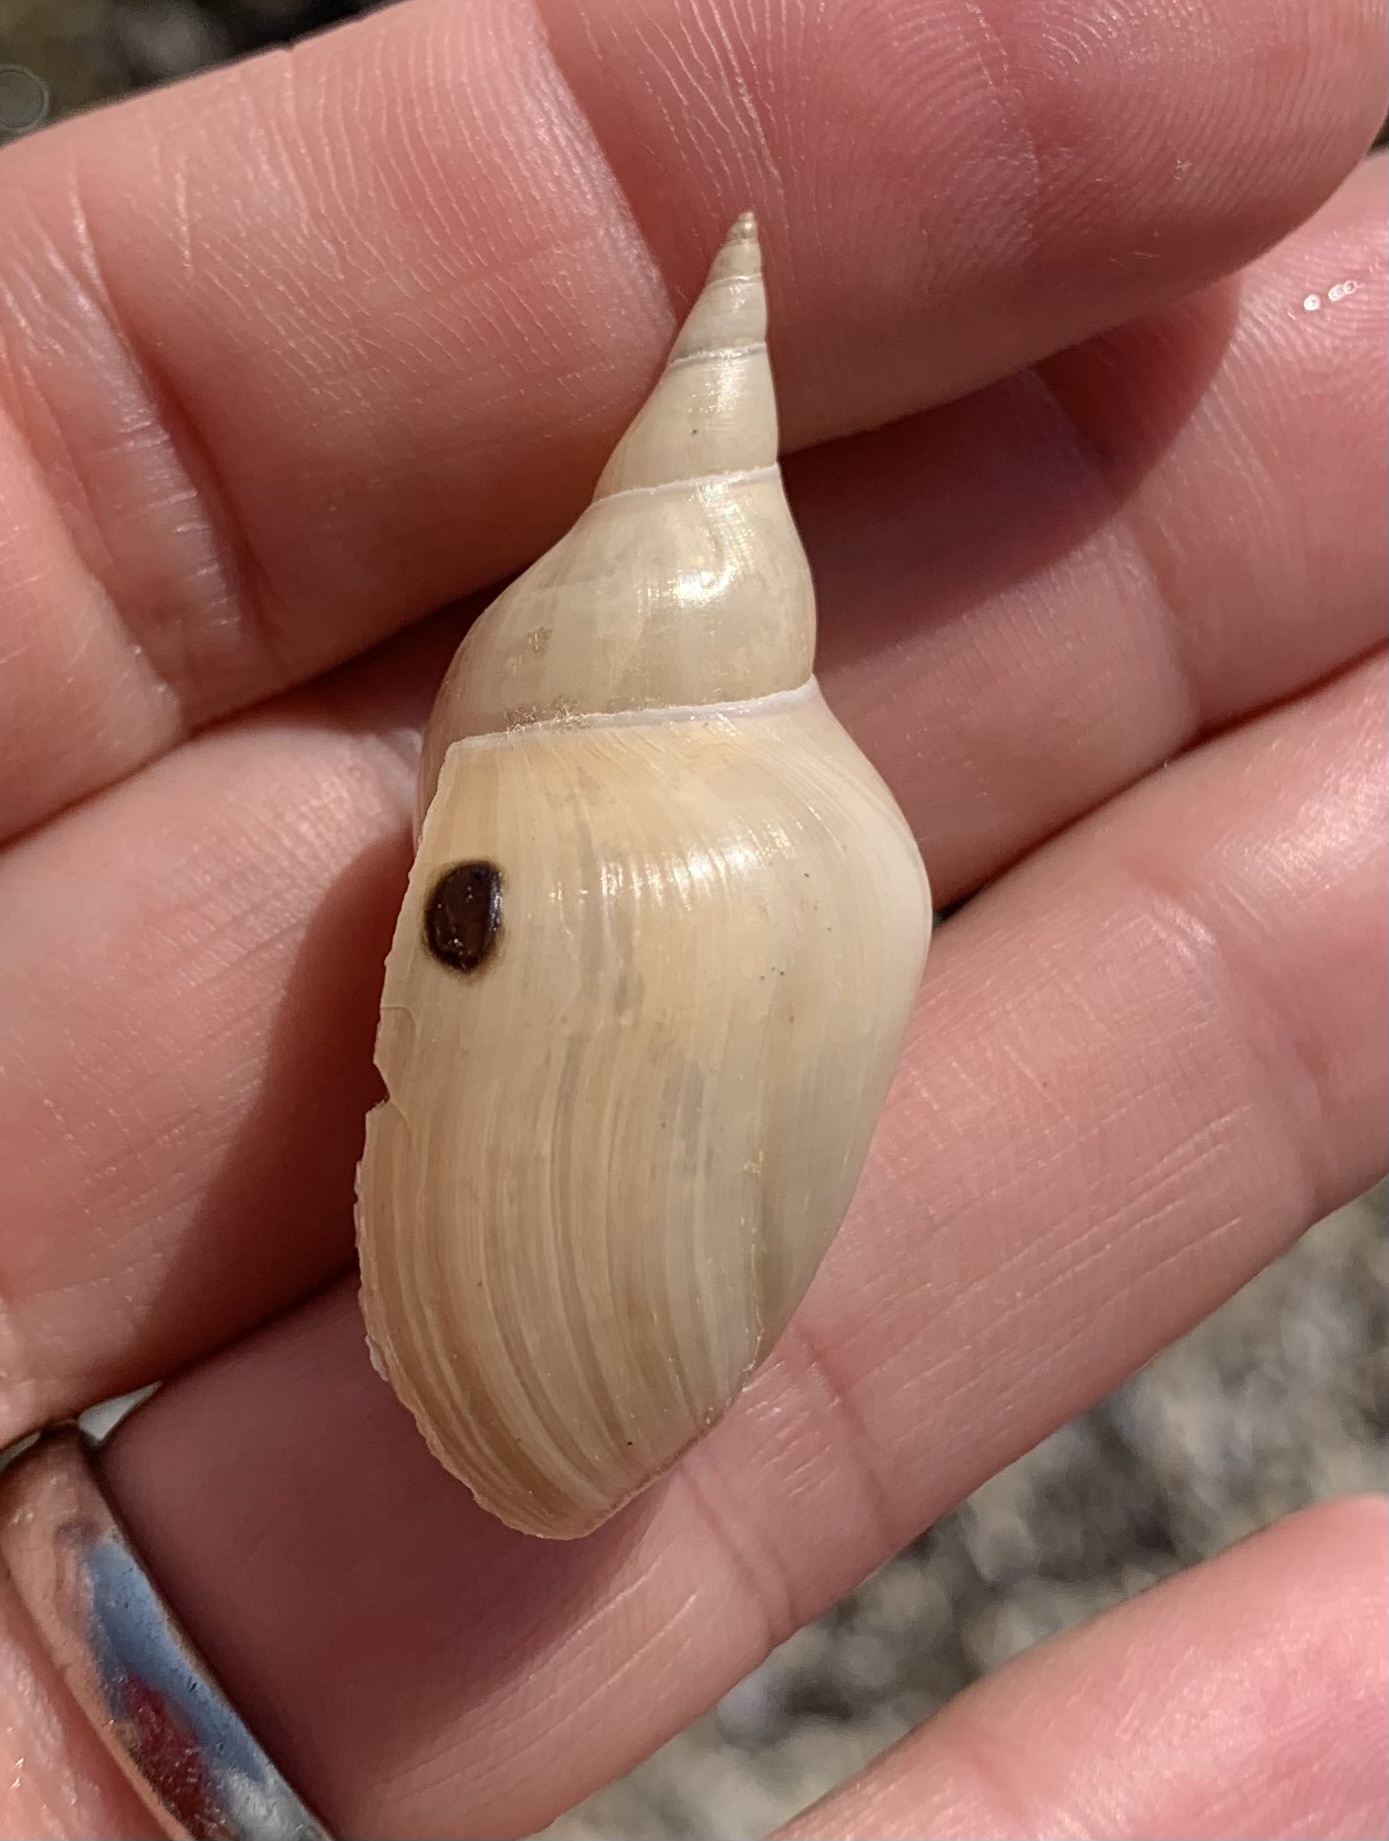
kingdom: Animalia
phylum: Mollusca
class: Gastropoda
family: Lymnaeidae
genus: Lymnaea
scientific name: Lymnaea stagnalis
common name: Great pond snail
